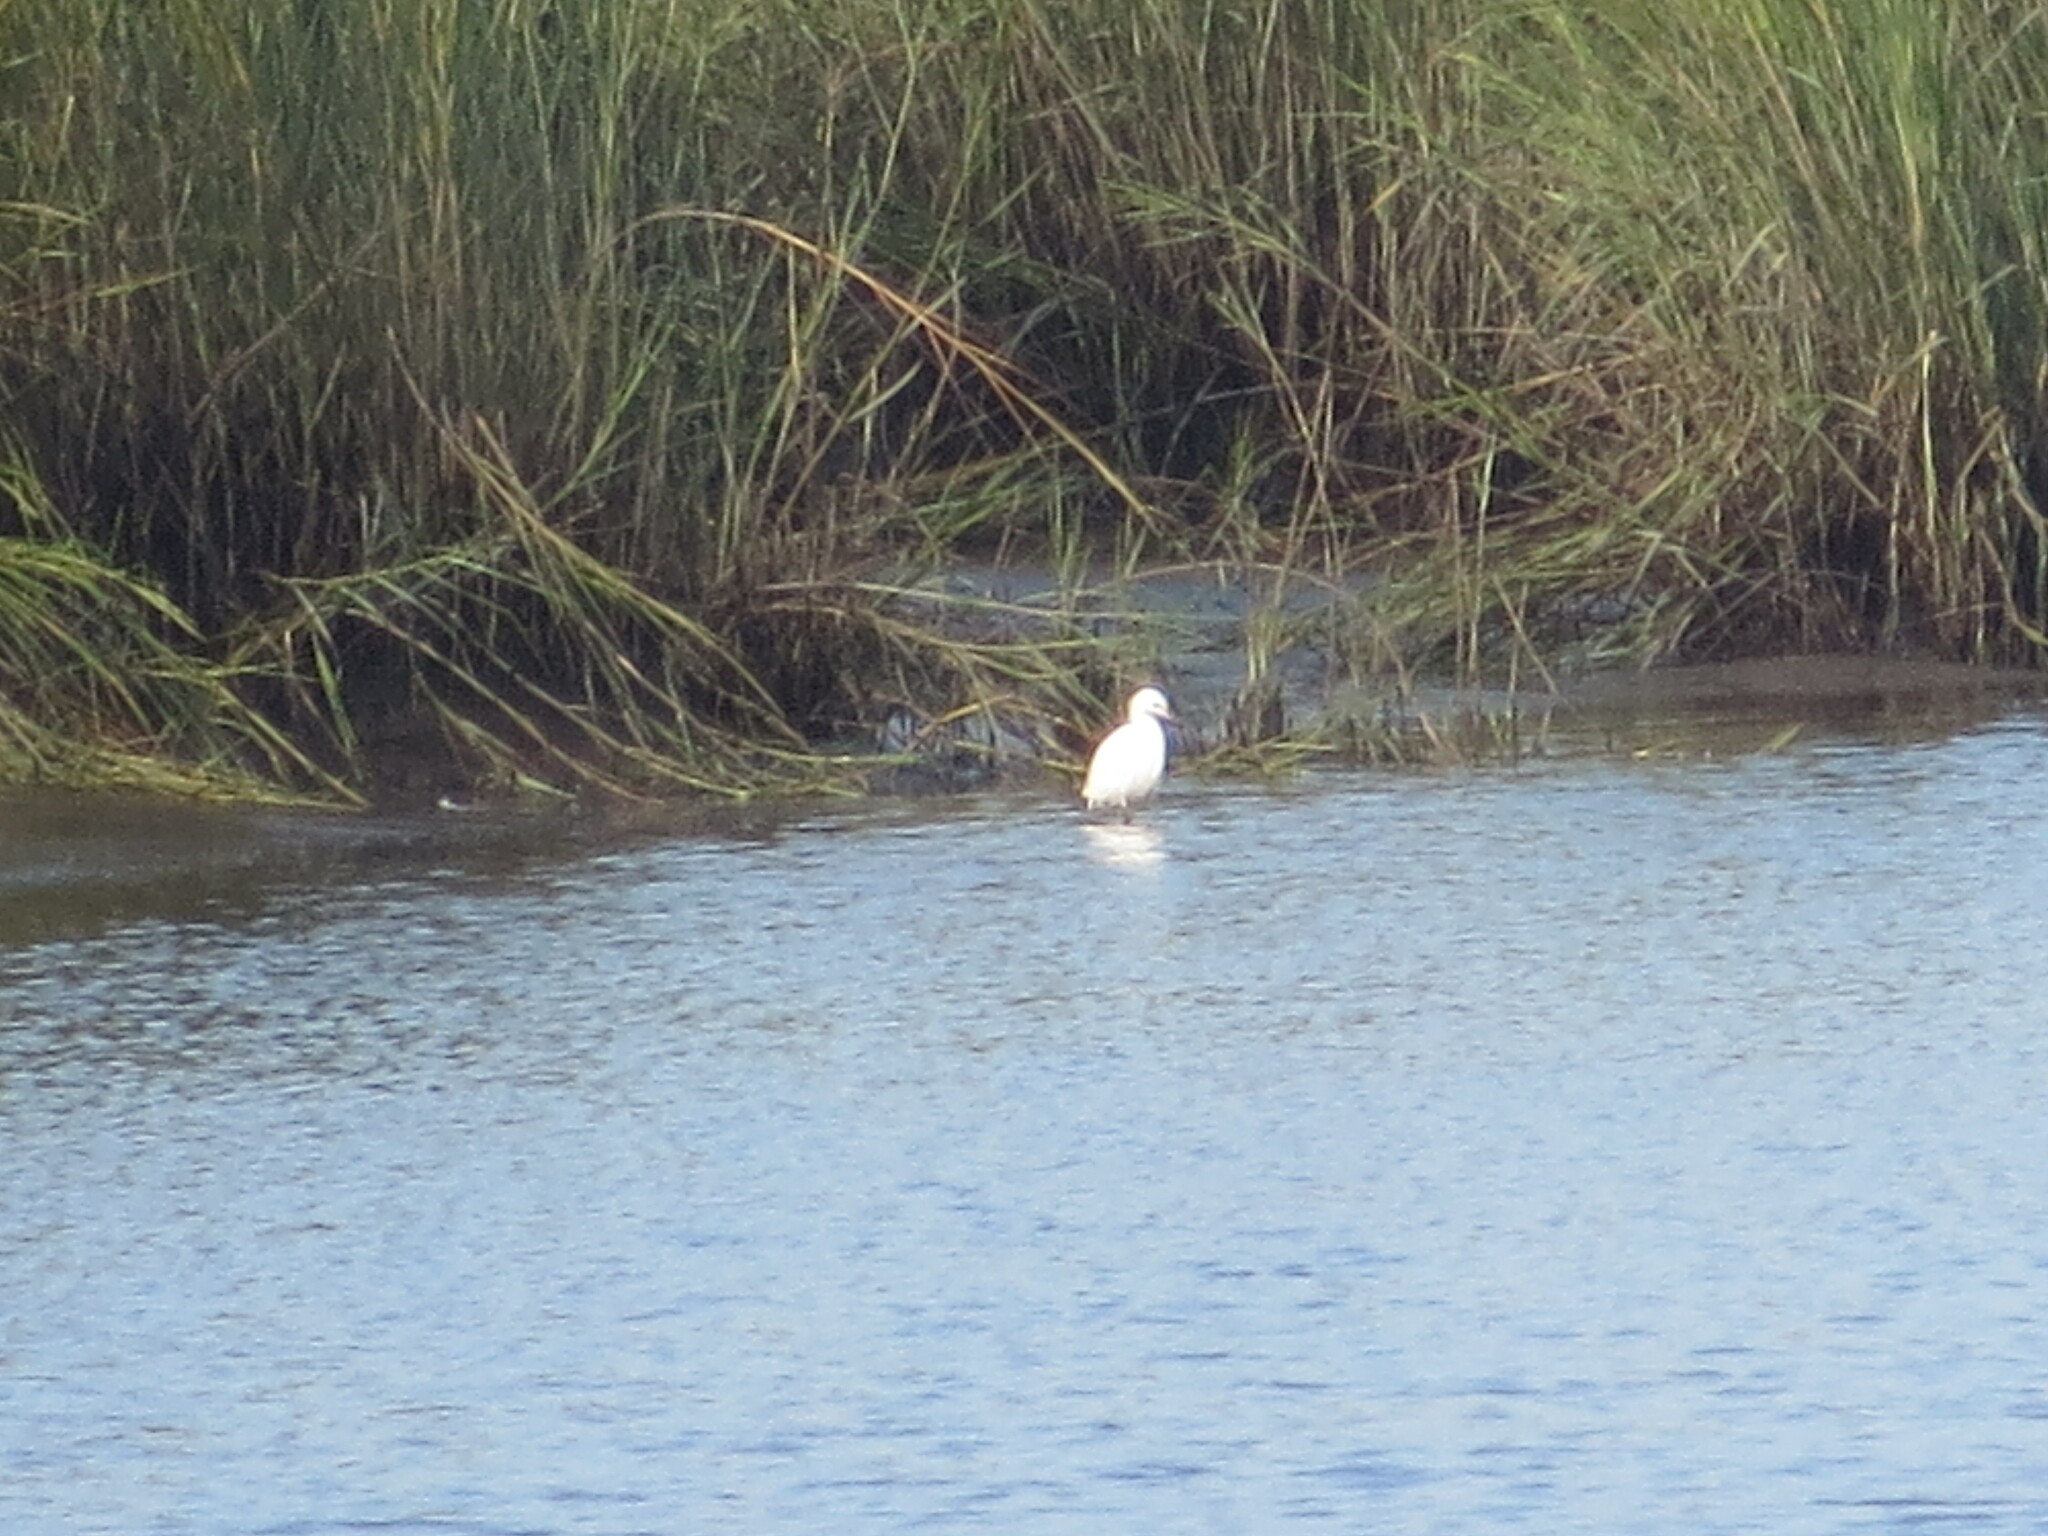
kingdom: Animalia
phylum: Chordata
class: Aves
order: Pelecaniformes
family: Ardeidae
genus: Egretta
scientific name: Egretta caerulea
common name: Little blue heron
